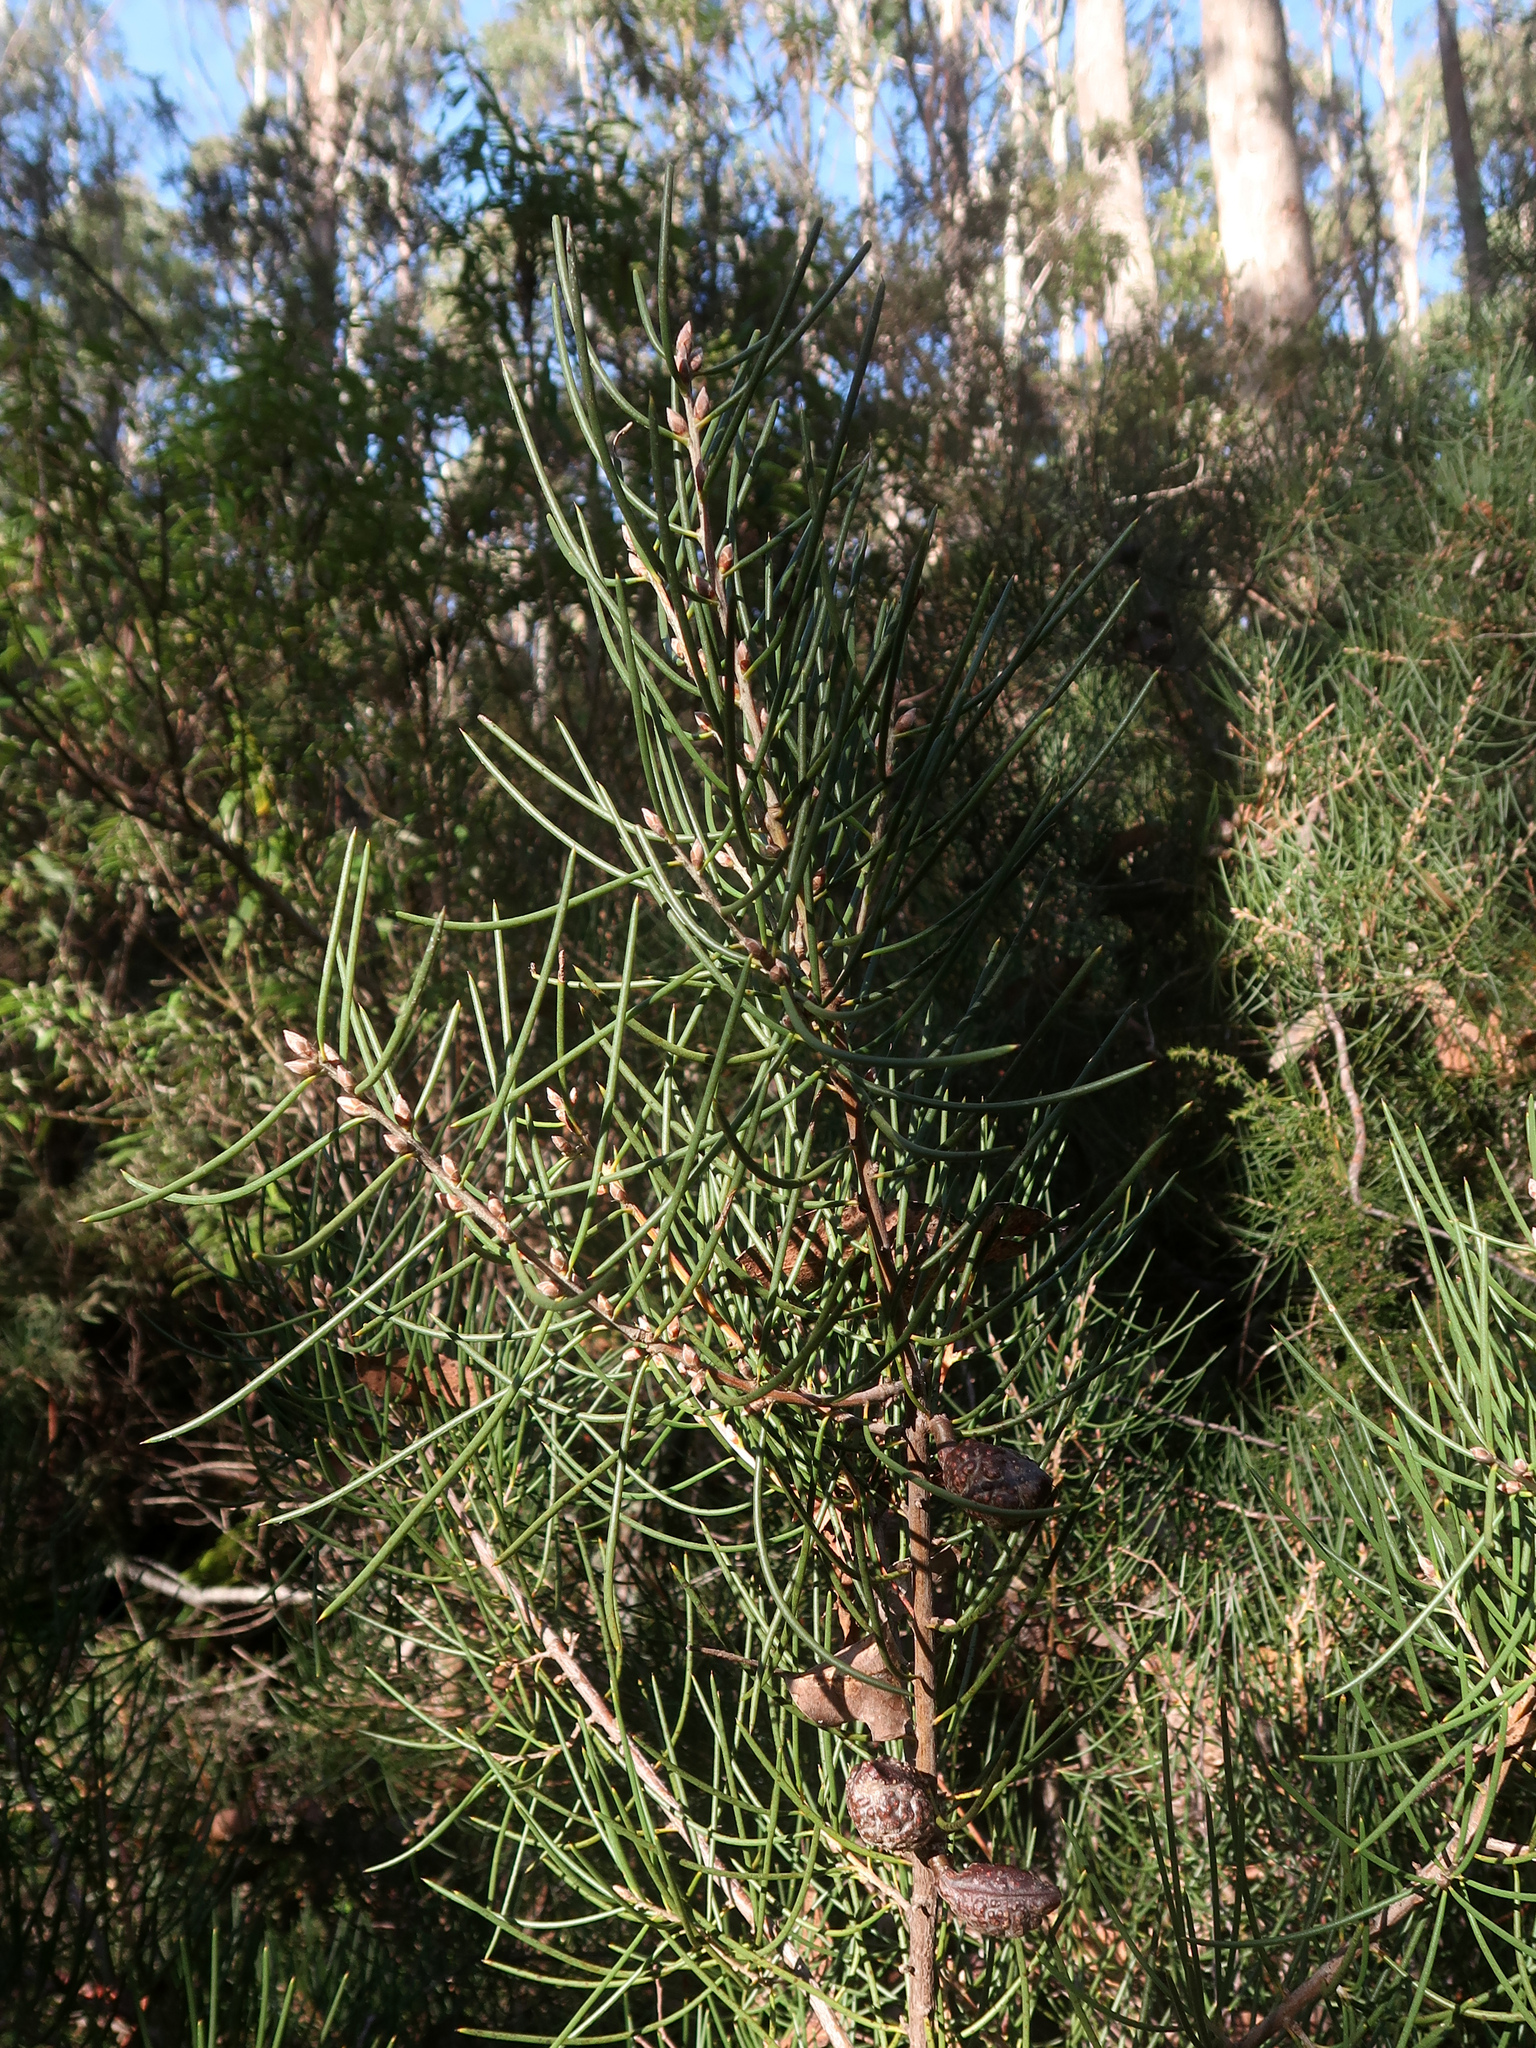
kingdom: Plantae
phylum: Tracheophyta
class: Magnoliopsida
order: Proteales
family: Proteaceae
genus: Hakea
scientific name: Hakea lissosperma
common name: Mountain needlewood
